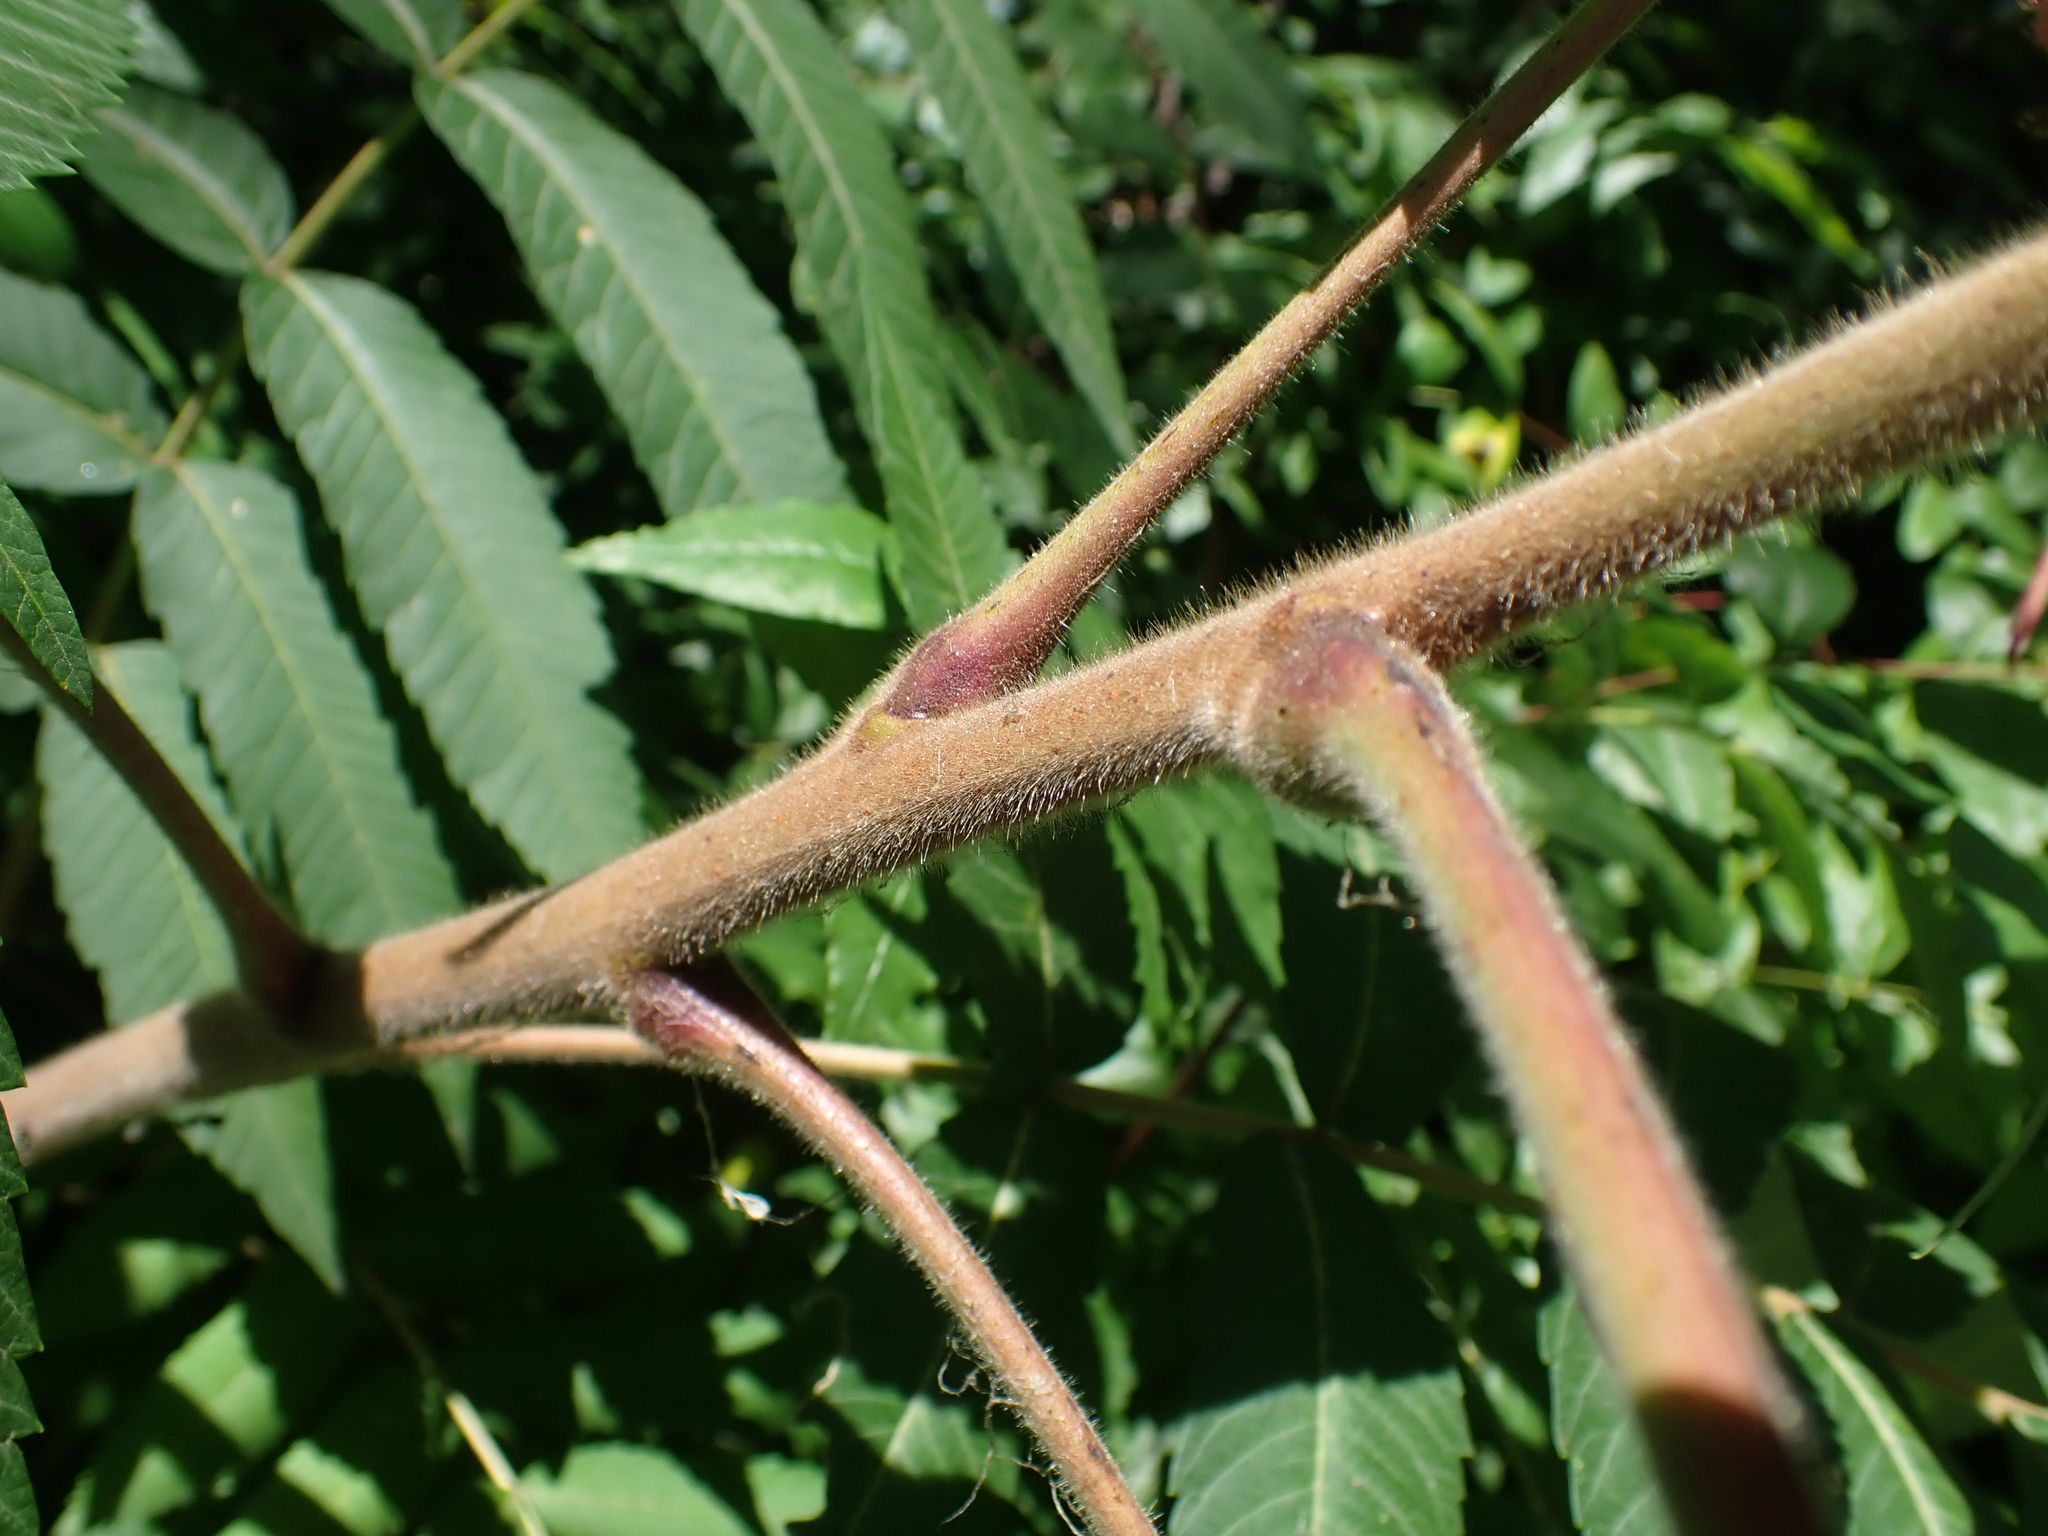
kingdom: Plantae
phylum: Tracheophyta
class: Magnoliopsida
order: Sapindales
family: Anacardiaceae
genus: Rhus
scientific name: Rhus typhina
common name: Staghorn sumac
